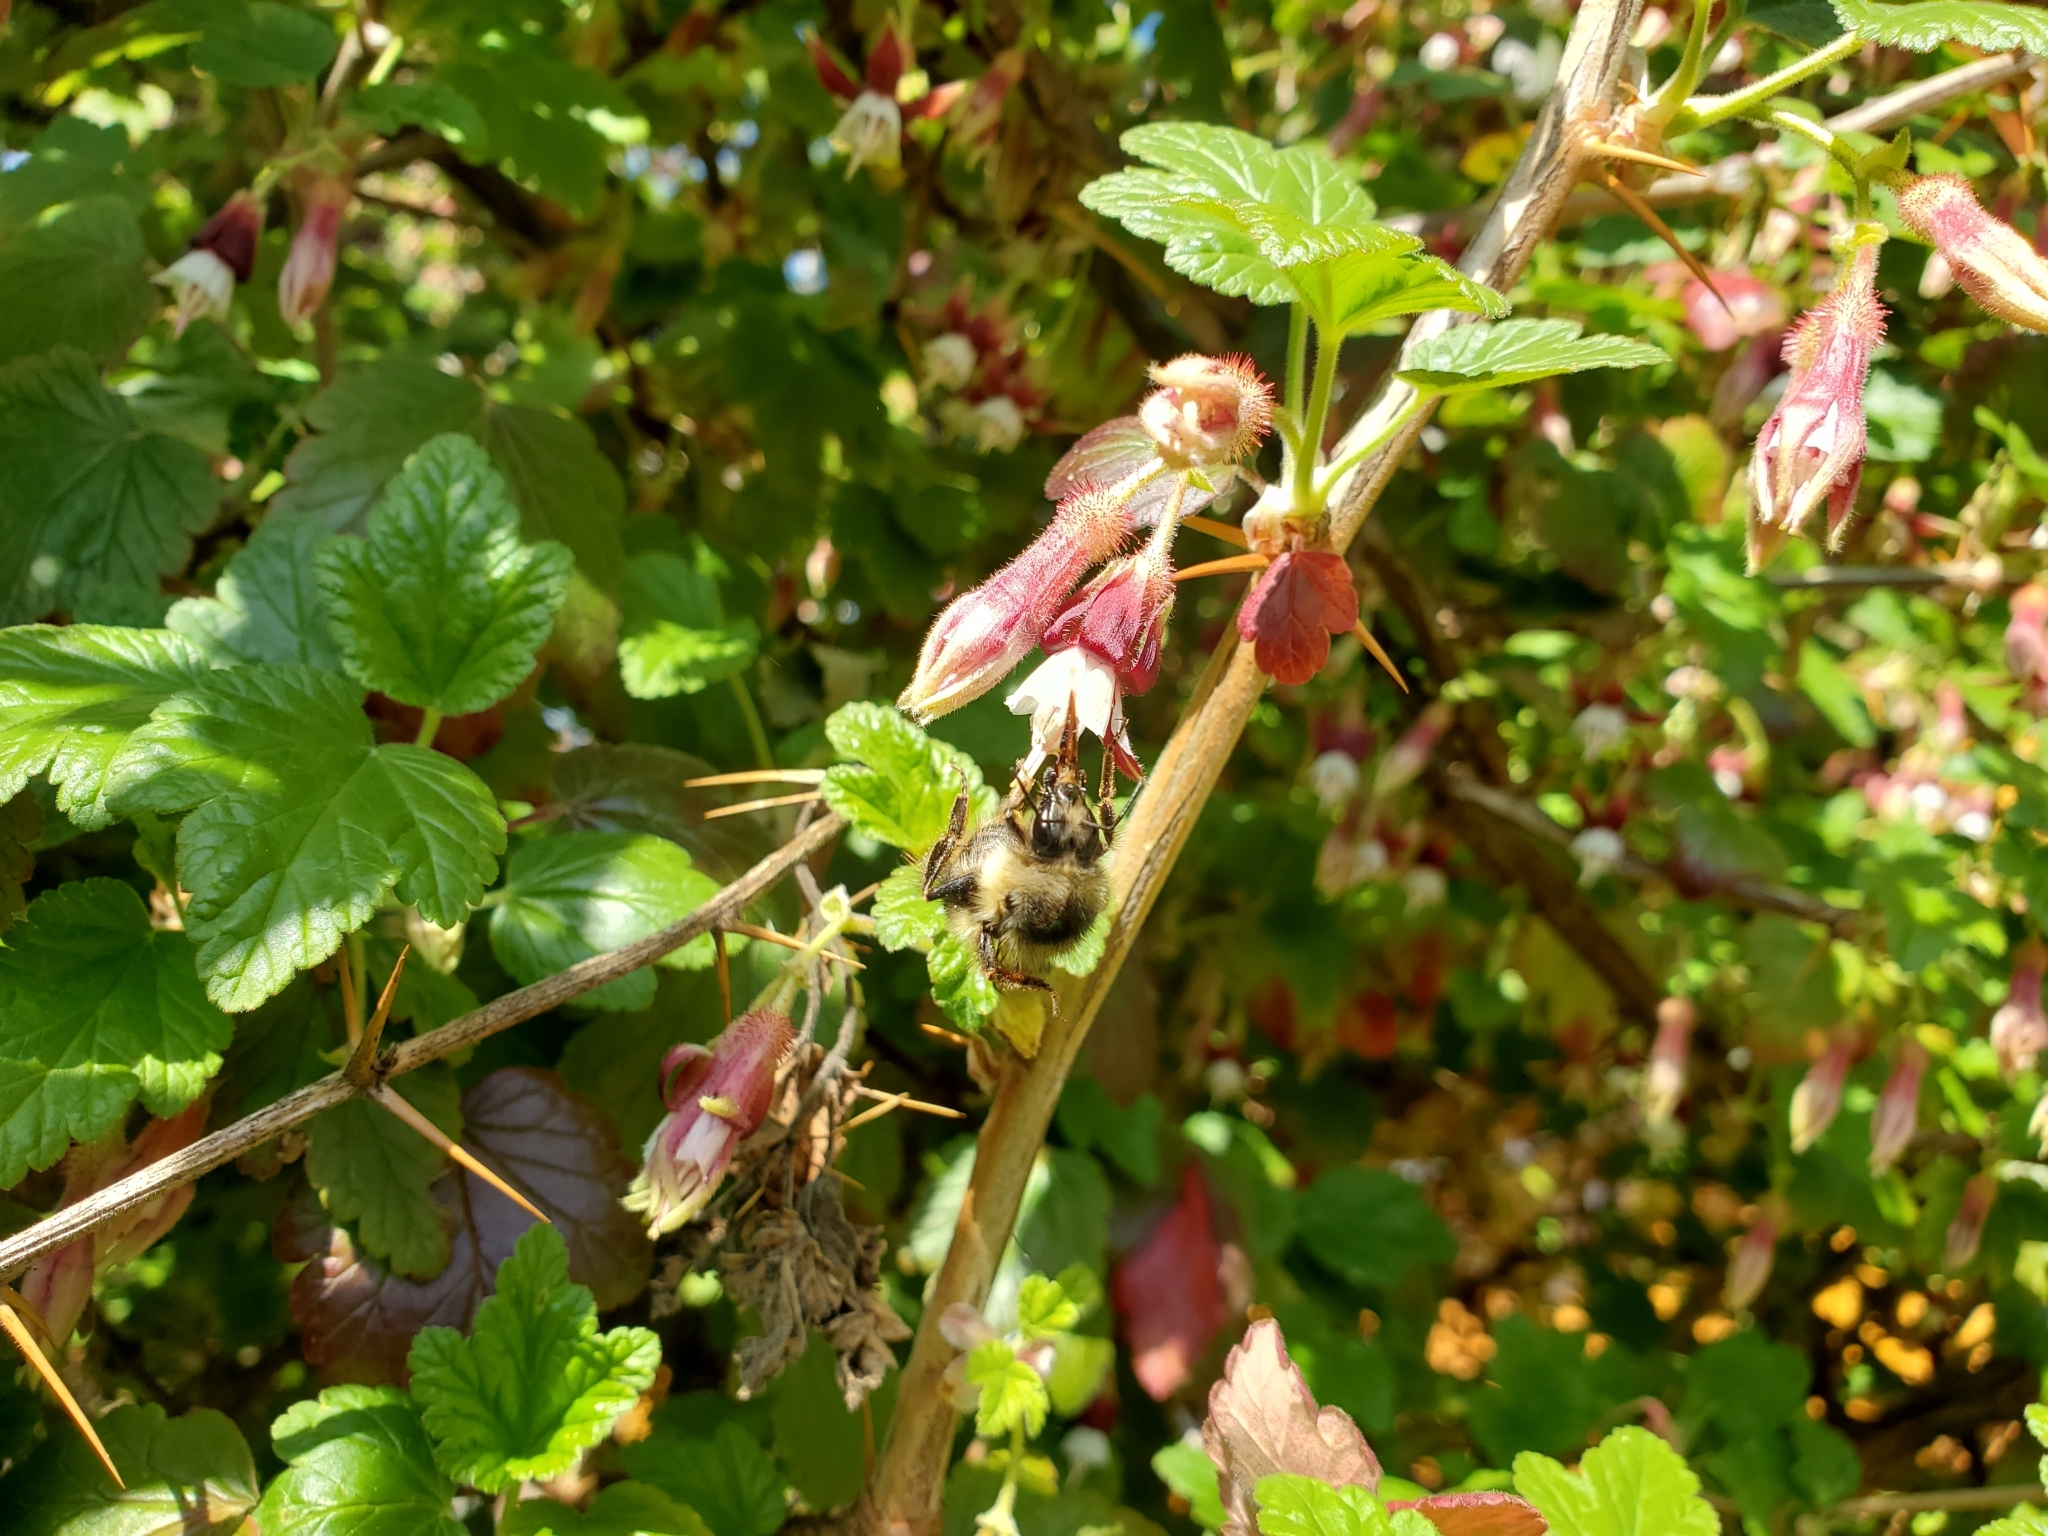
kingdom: Animalia
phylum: Arthropoda
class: Insecta
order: Hymenoptera
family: Apidae
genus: Bombus
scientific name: Bombus sitkensis
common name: Sitka bumble bee
